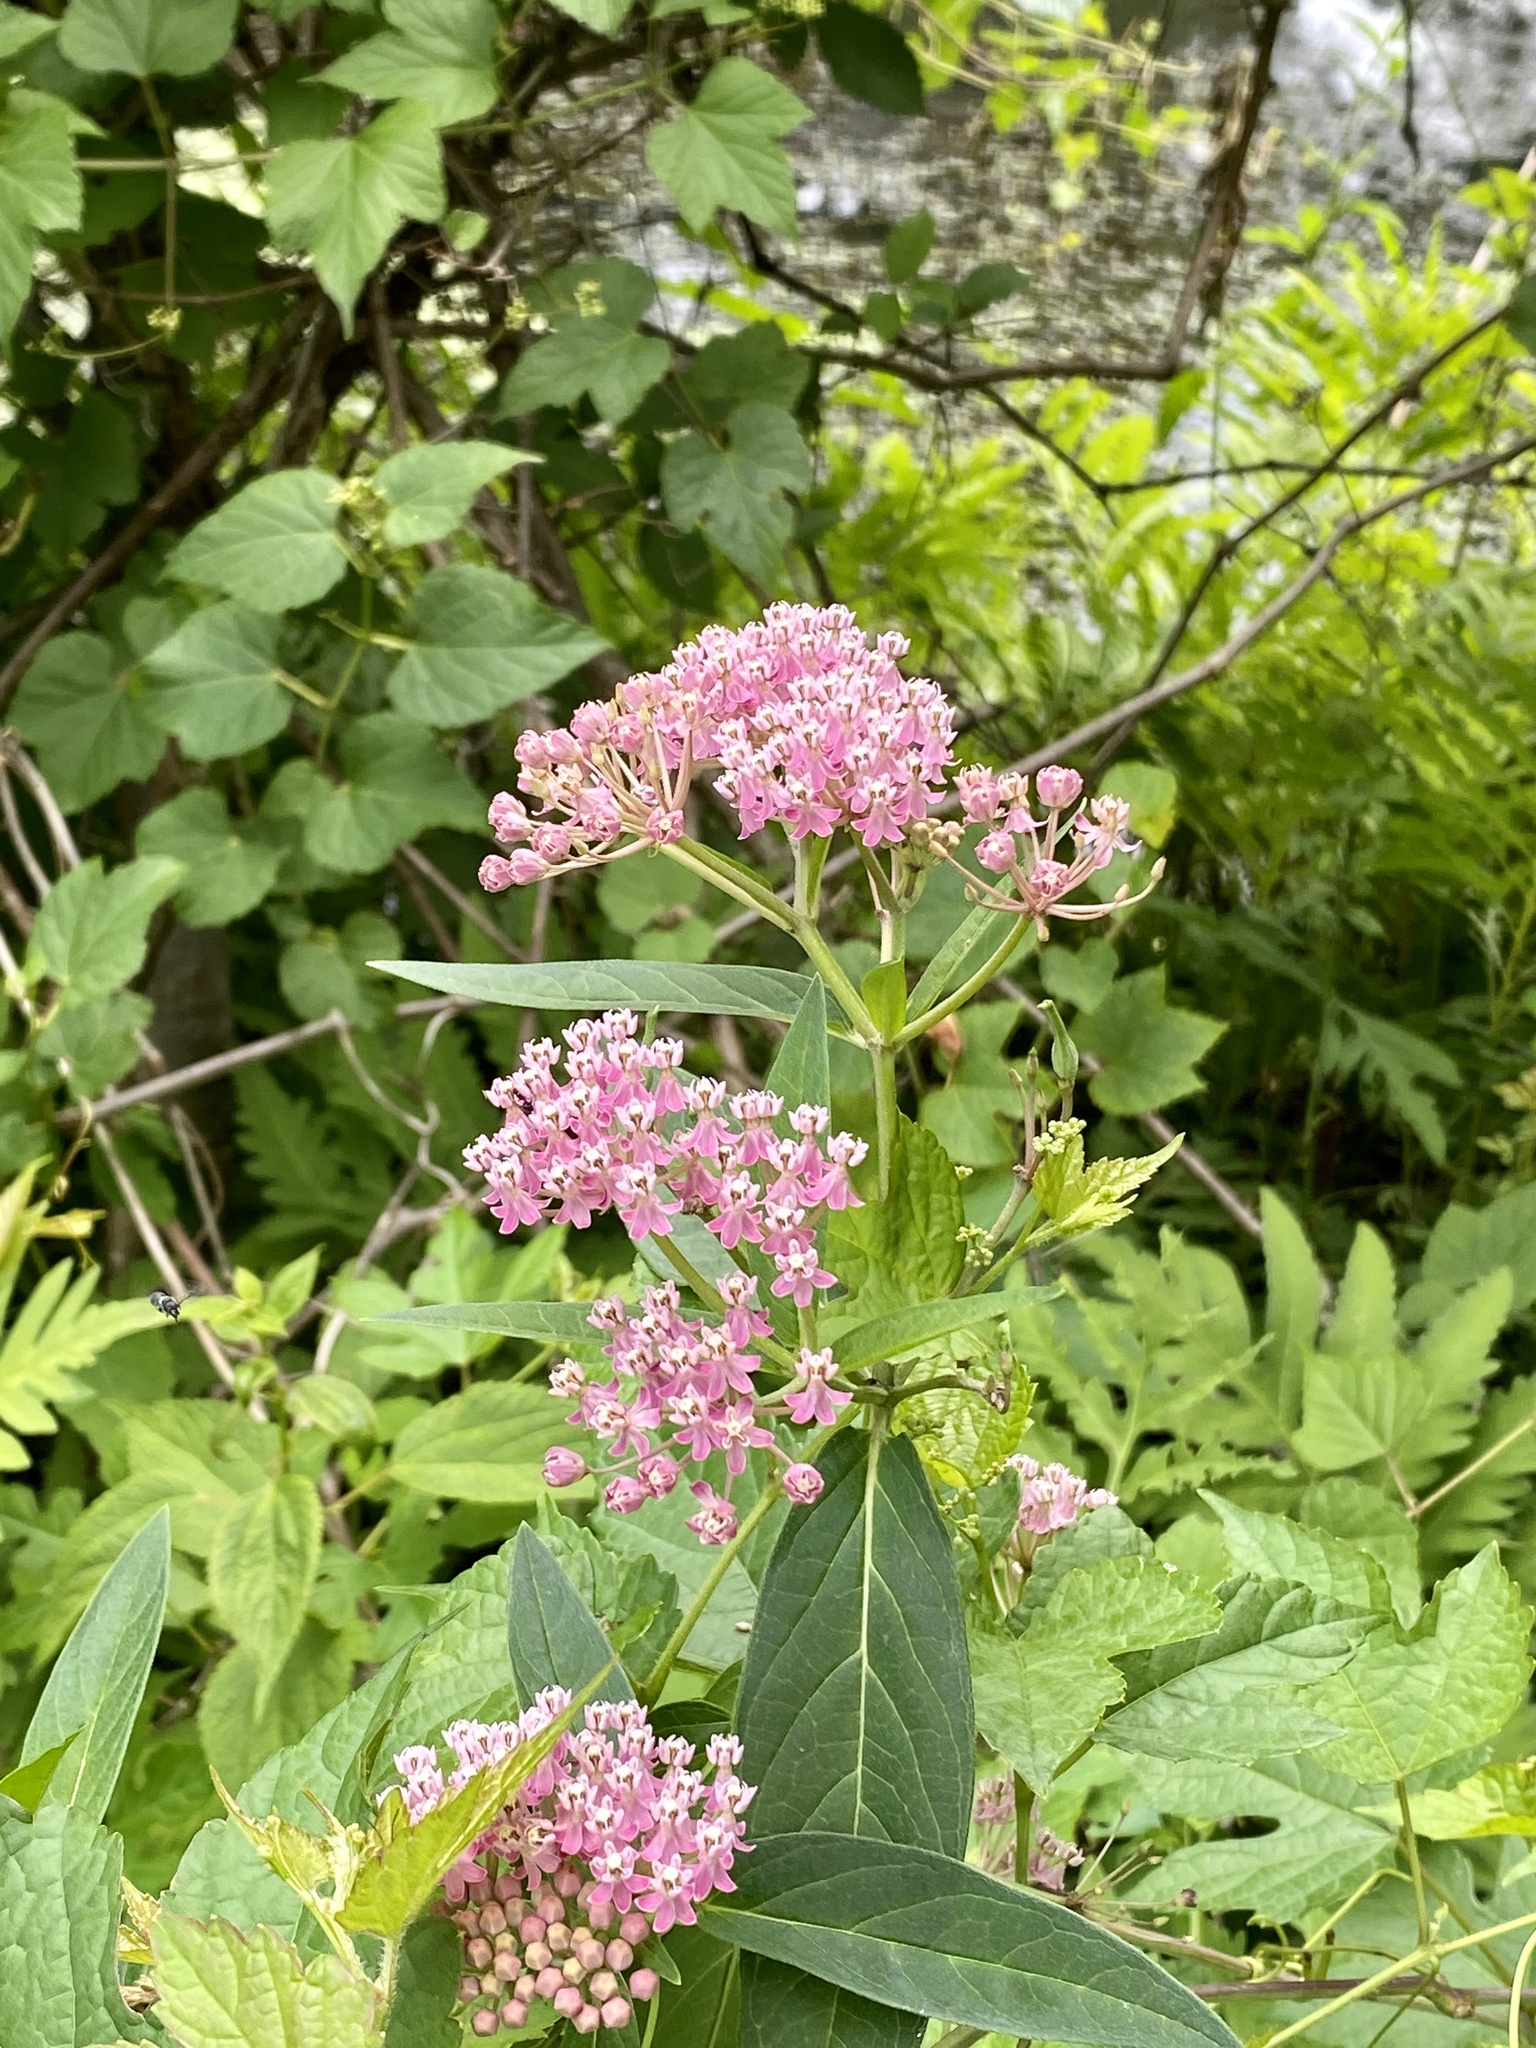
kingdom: Plantae
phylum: Tracheophyta
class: Magnoliopsida
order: Gentianales
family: Apocynaceae
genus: Asclepias
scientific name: Asclepias incarnata
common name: Swamp milkweed
